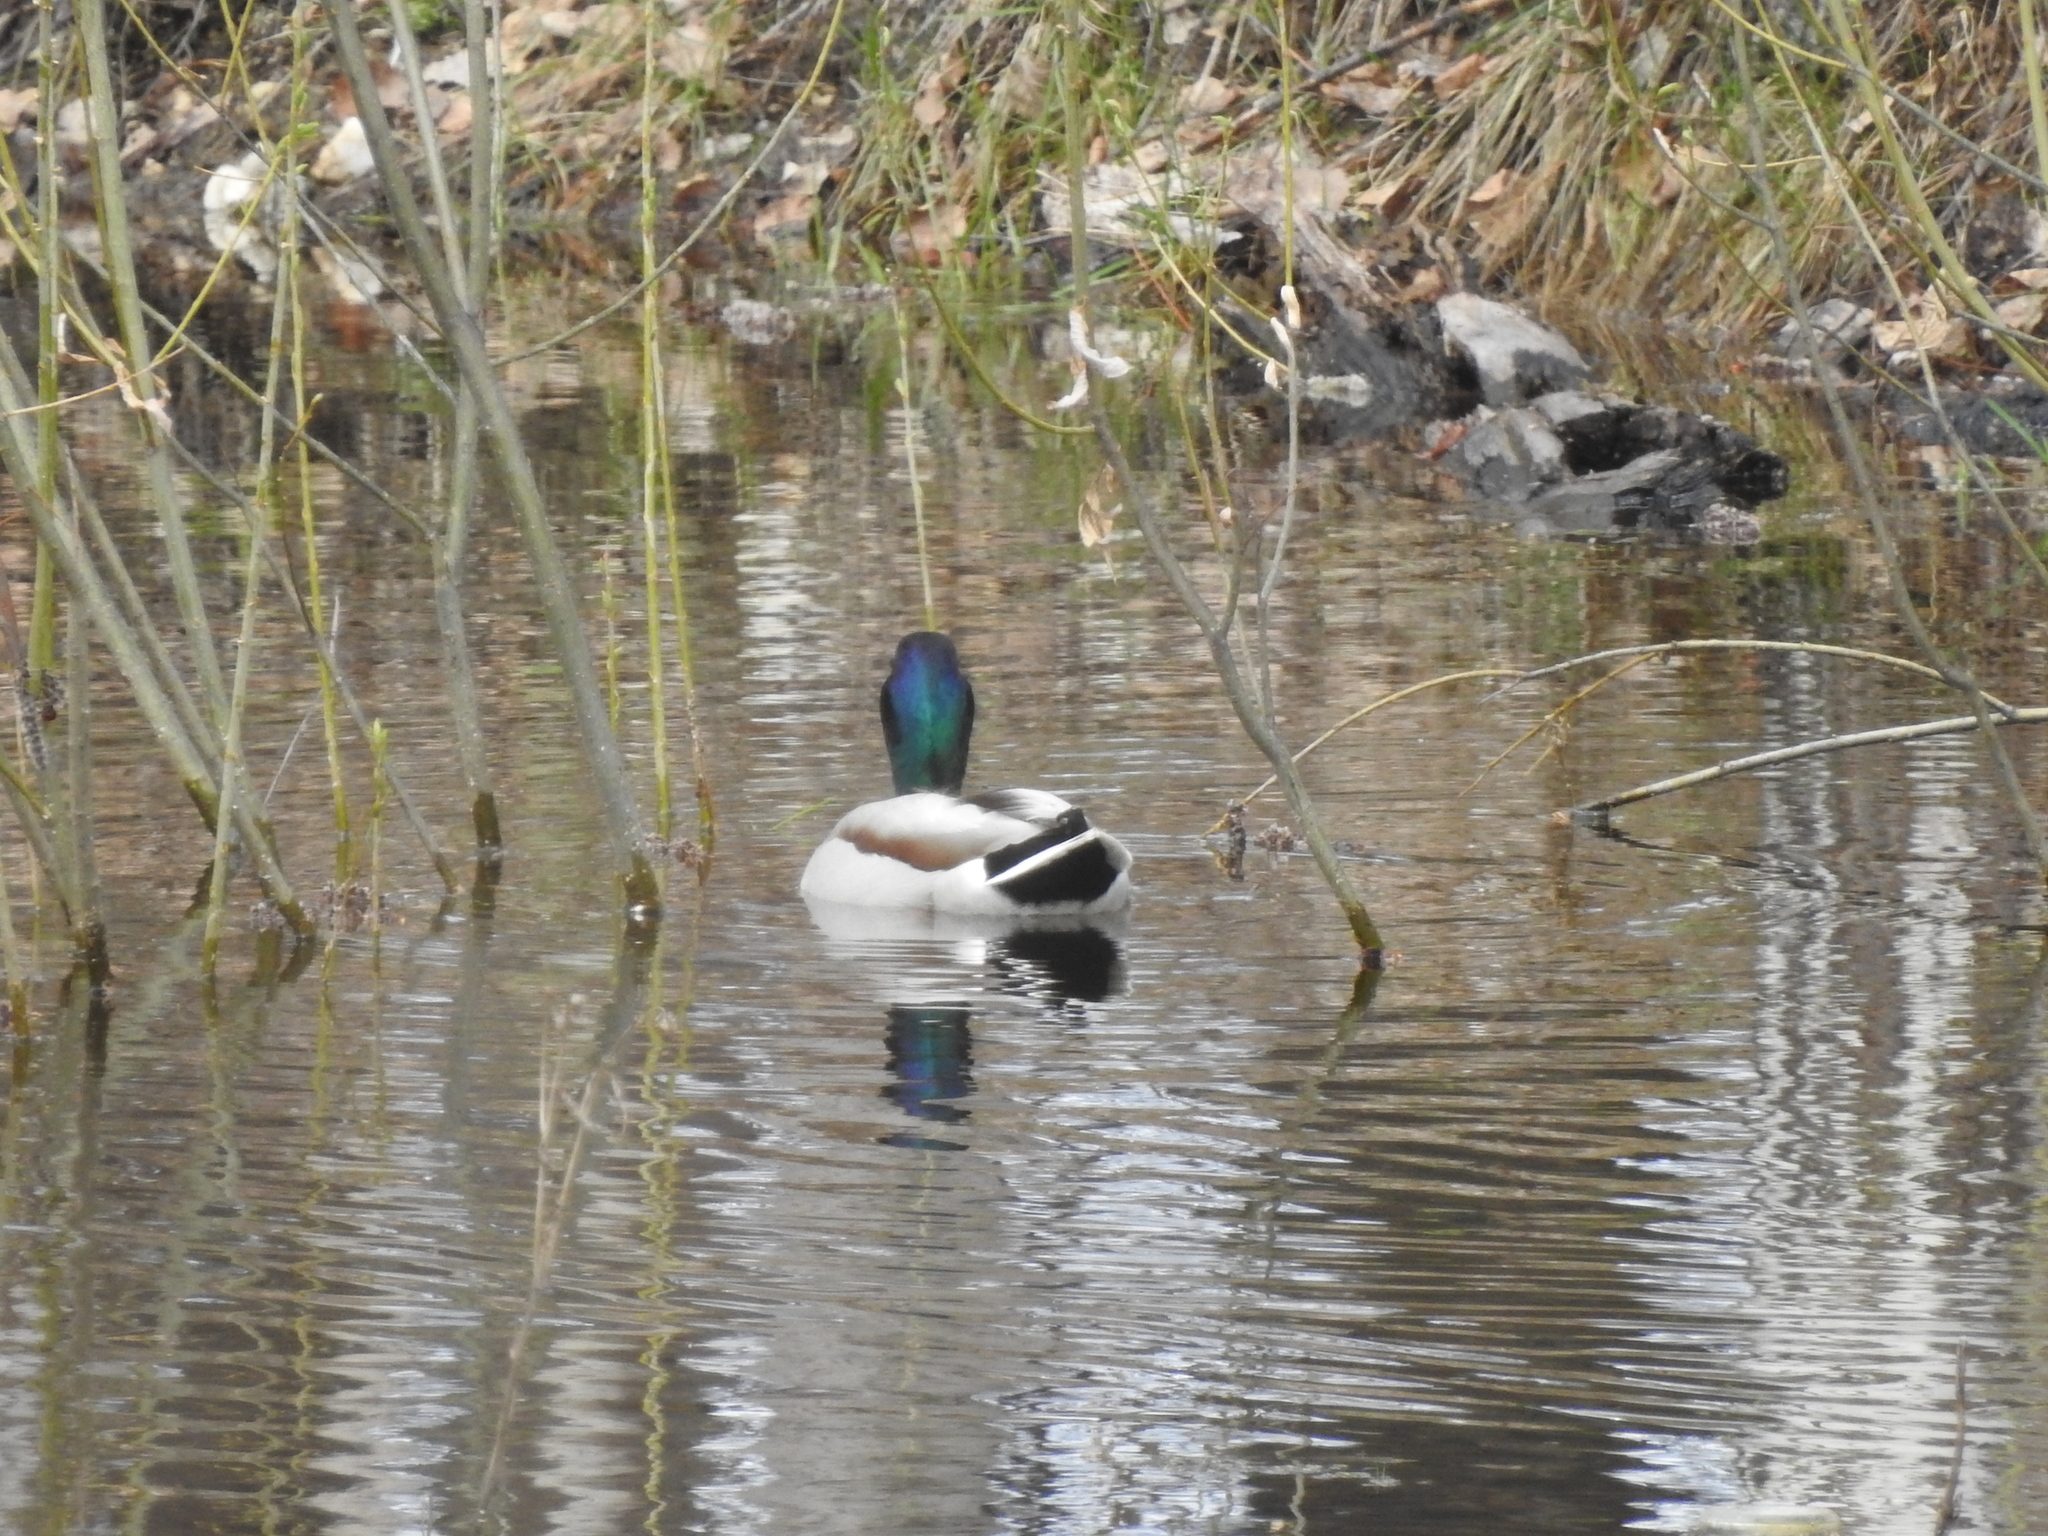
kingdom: Animalia
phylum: Chordata
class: Aves
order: Anseriformes
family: Anatidae
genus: Anas
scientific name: Anas platyrhynchos
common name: Mallard
